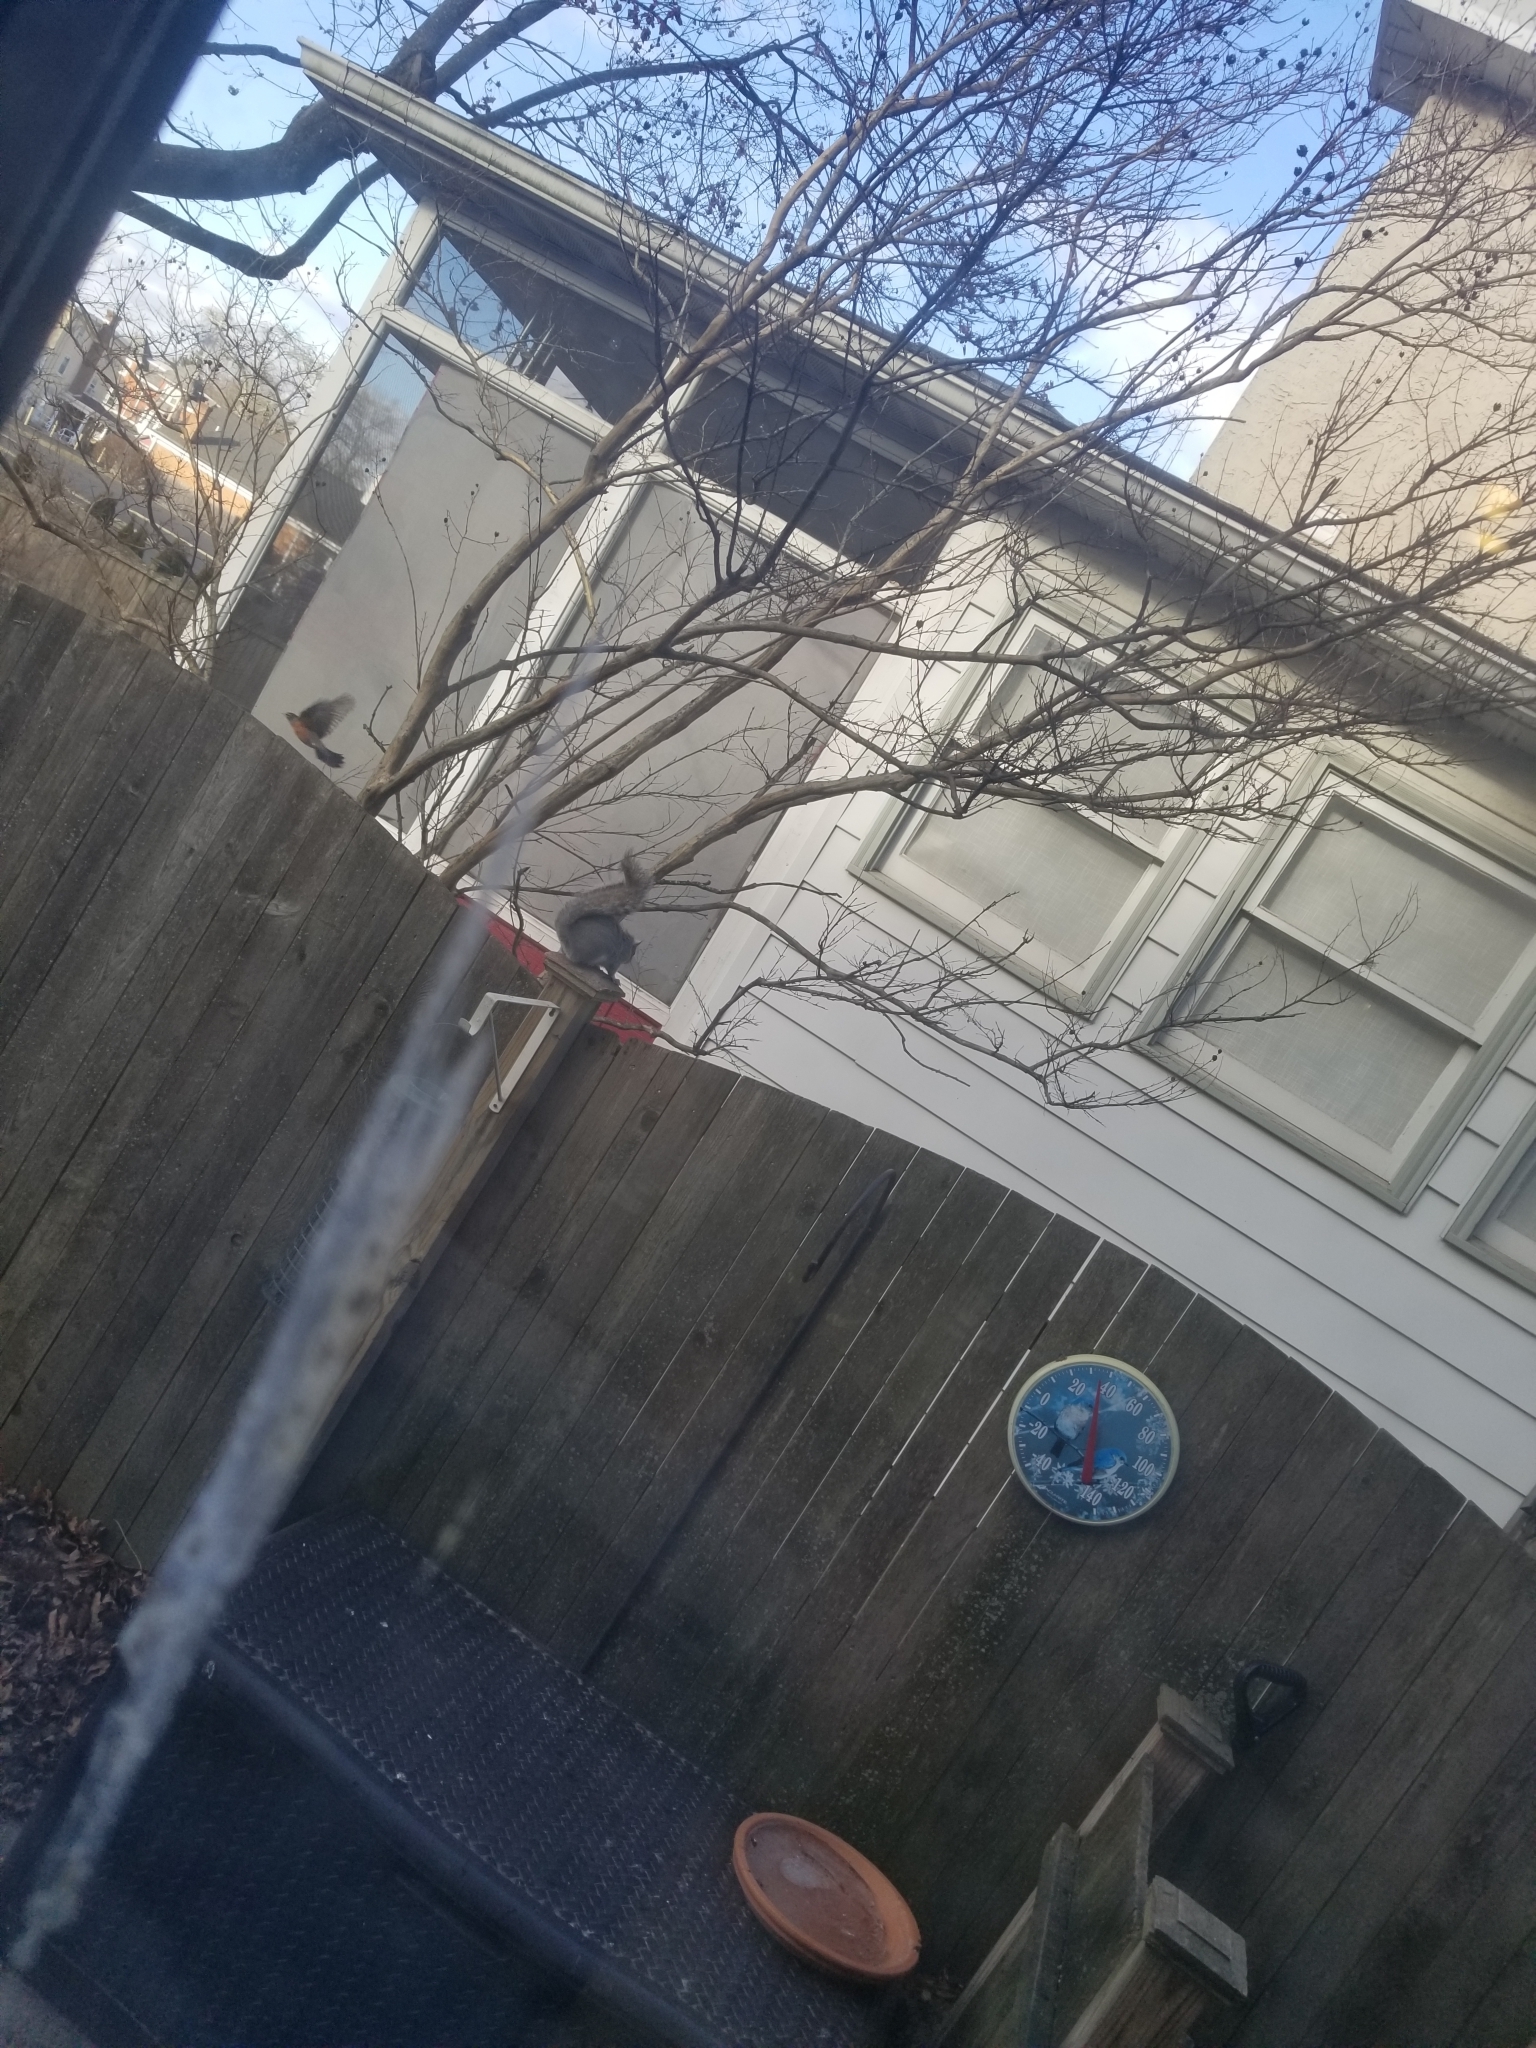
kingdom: Animalia
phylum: Chordata
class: Aves
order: Passeriformes
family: Turdidae
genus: Turdus
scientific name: Turdus migratorius
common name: American robin
